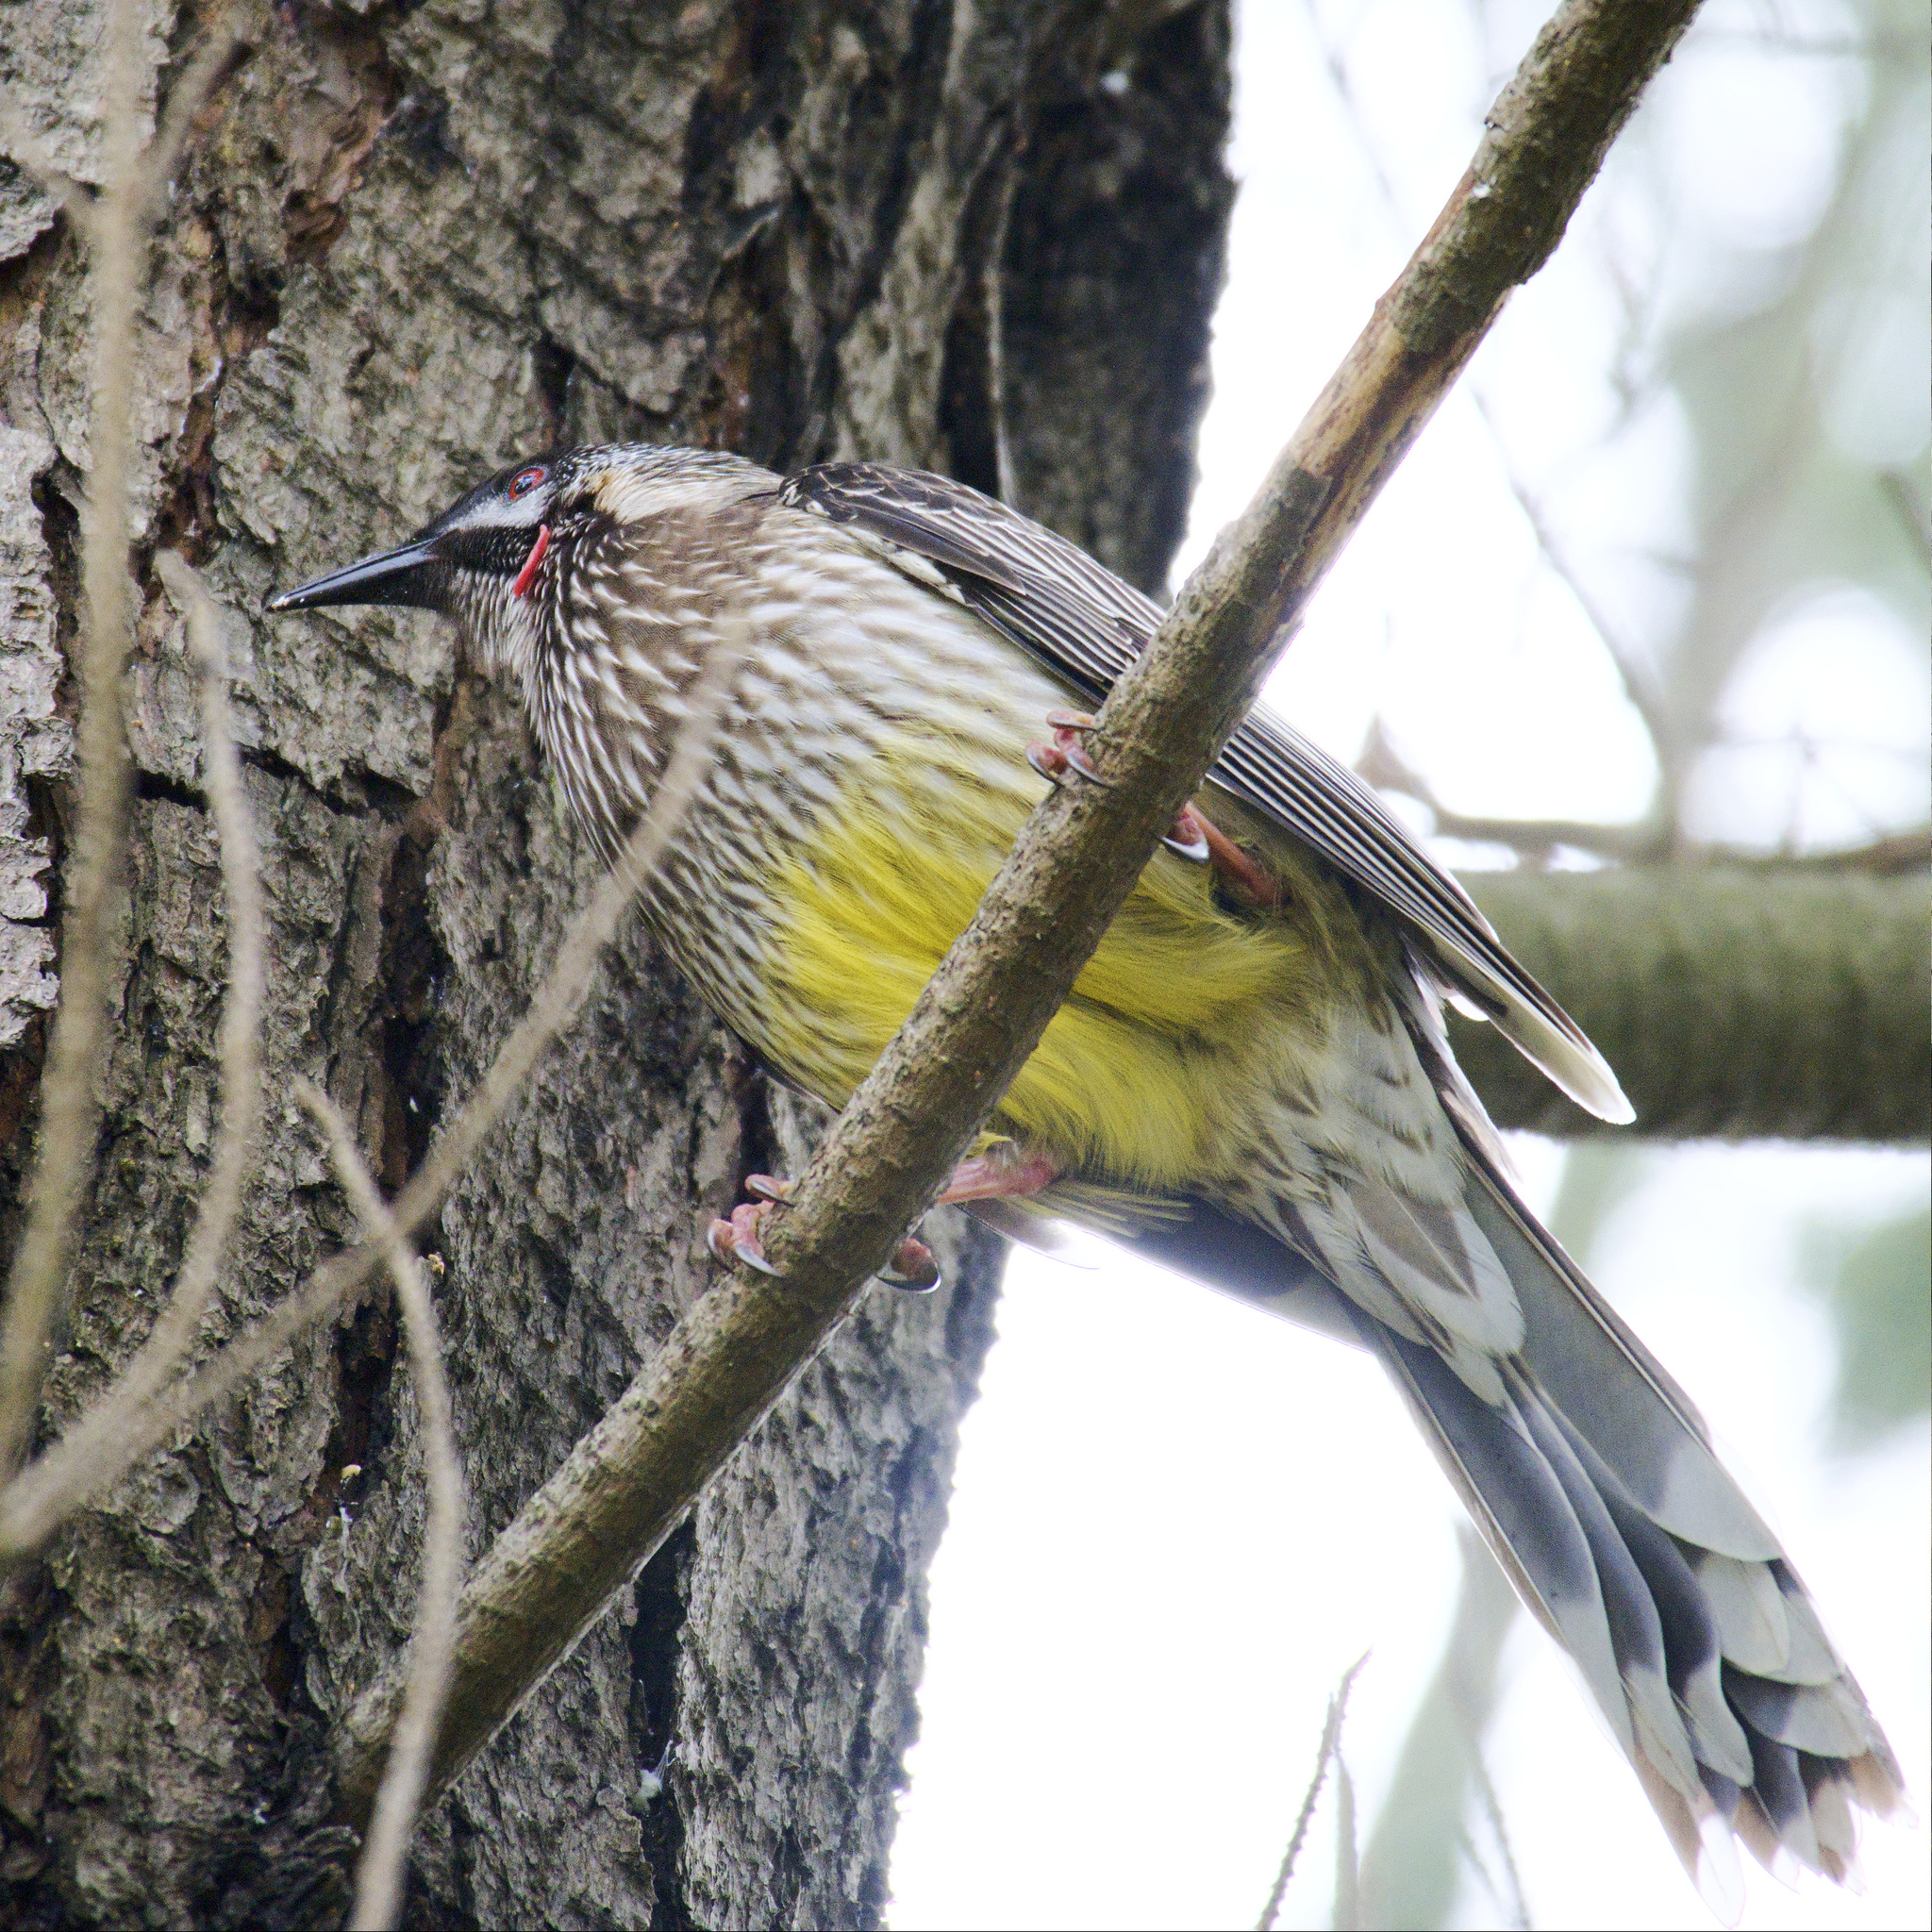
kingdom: Animalia
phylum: Chordata
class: Aves
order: Passeriformes
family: Meliphagidae
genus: Anthochaera
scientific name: Anthochaera carunculata
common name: Red wattlebird
